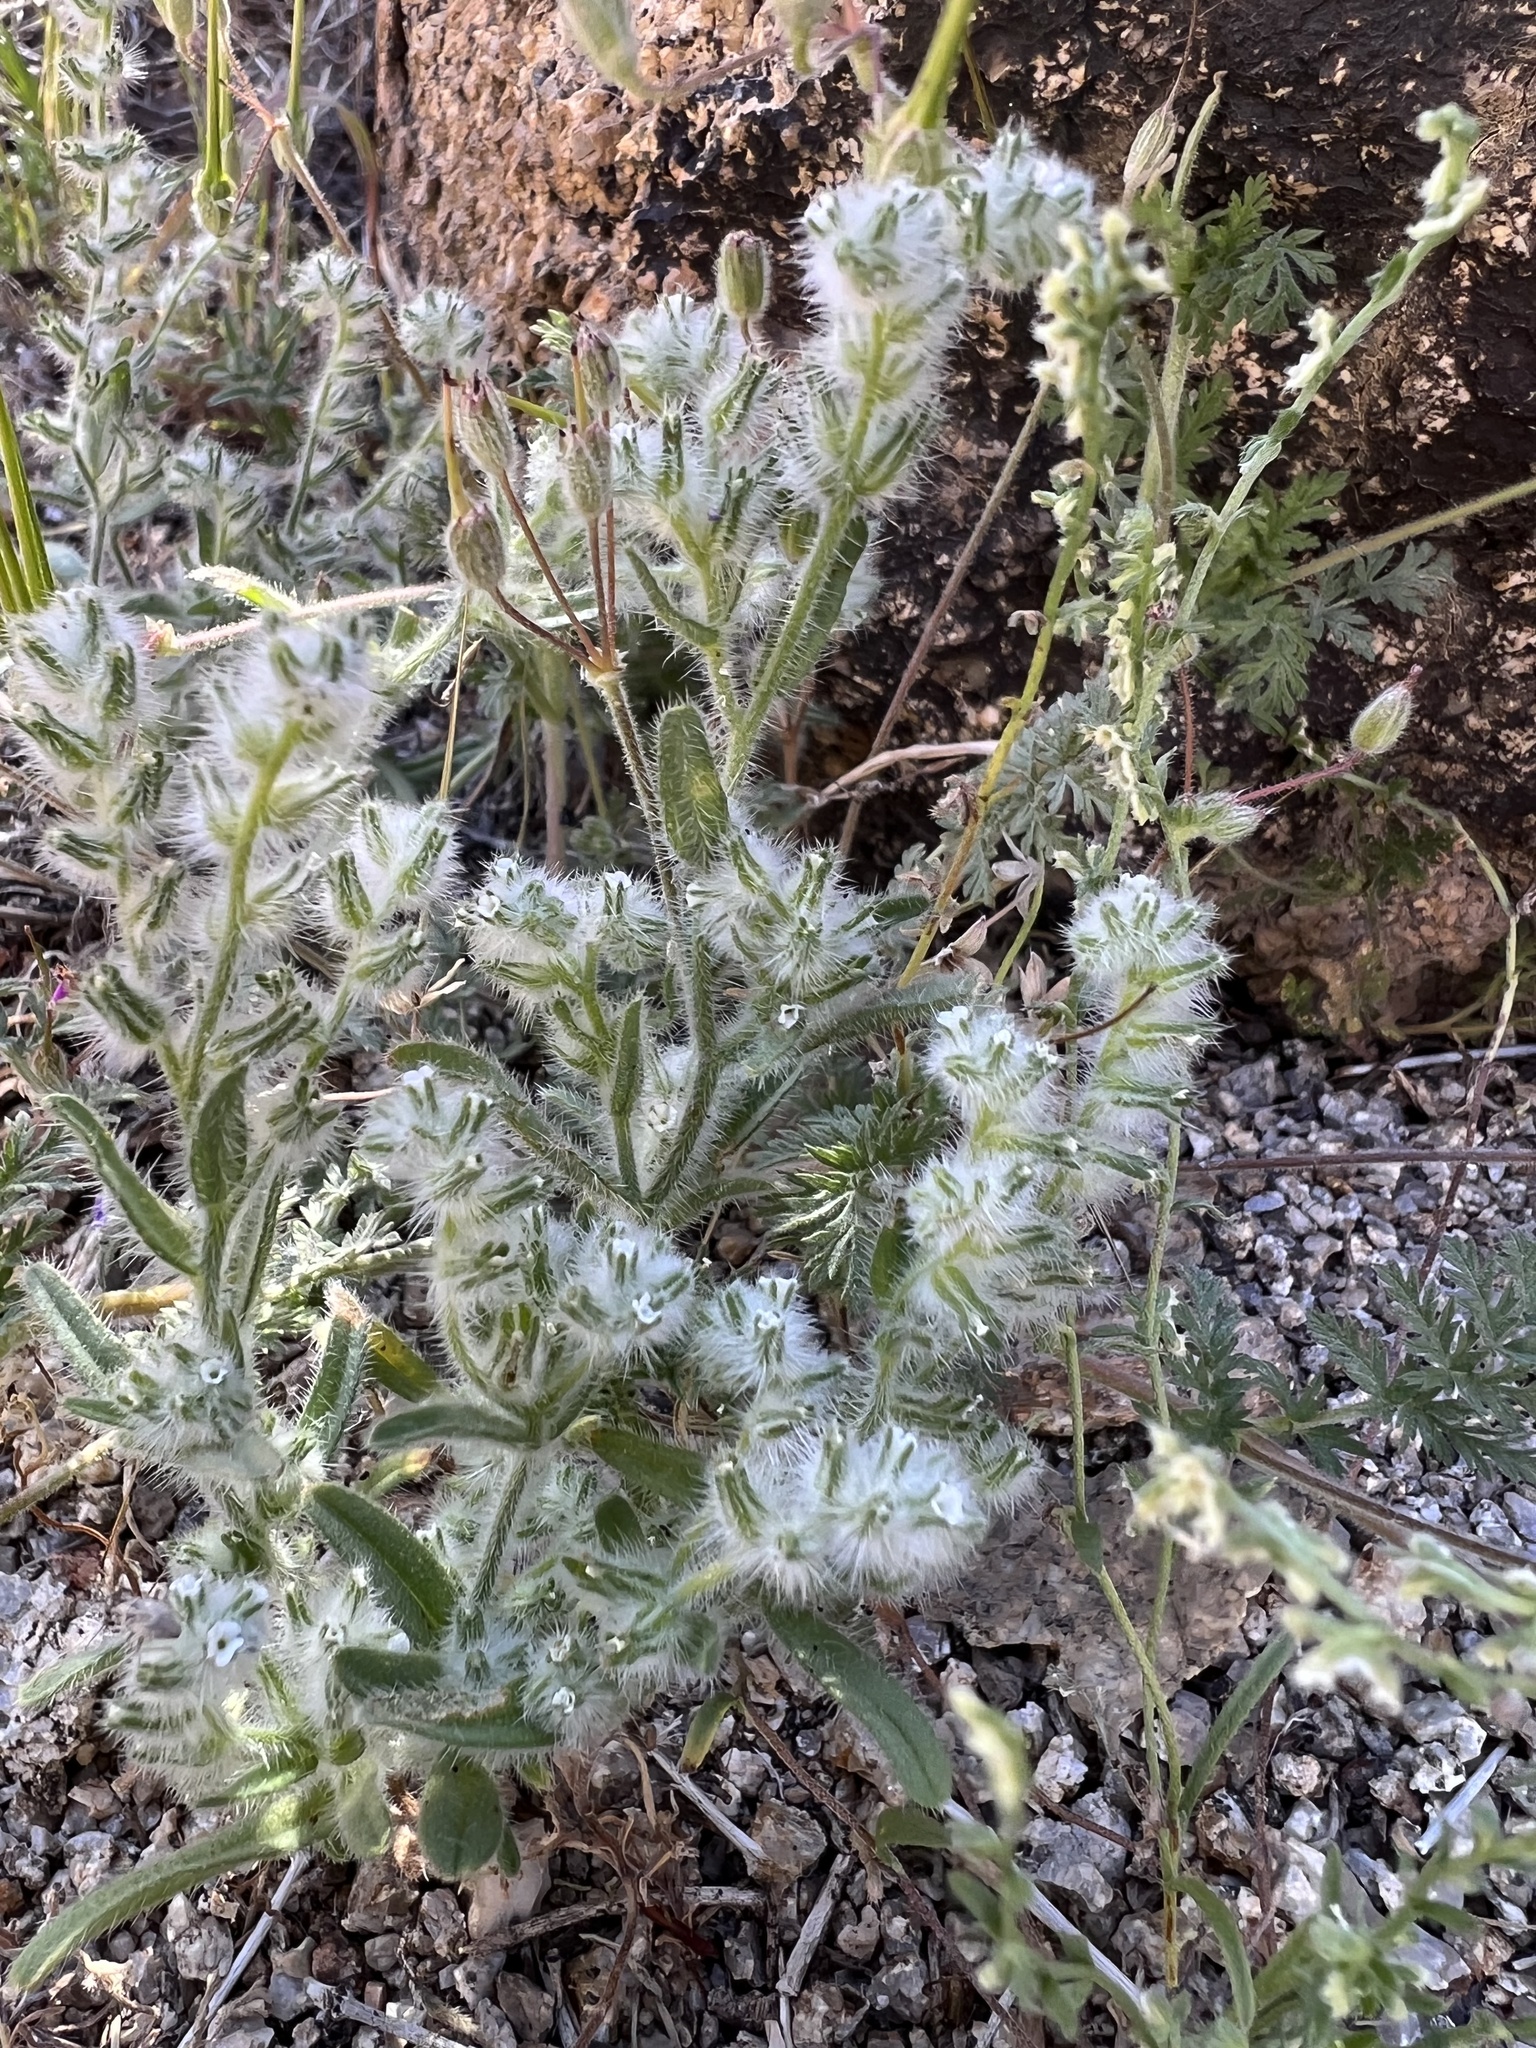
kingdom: Plantae
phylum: Tracheophyta
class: Magnoliopsida
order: Boraginales
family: Boraginaceae
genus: Cryptantha
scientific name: Cryptantha barbigera
